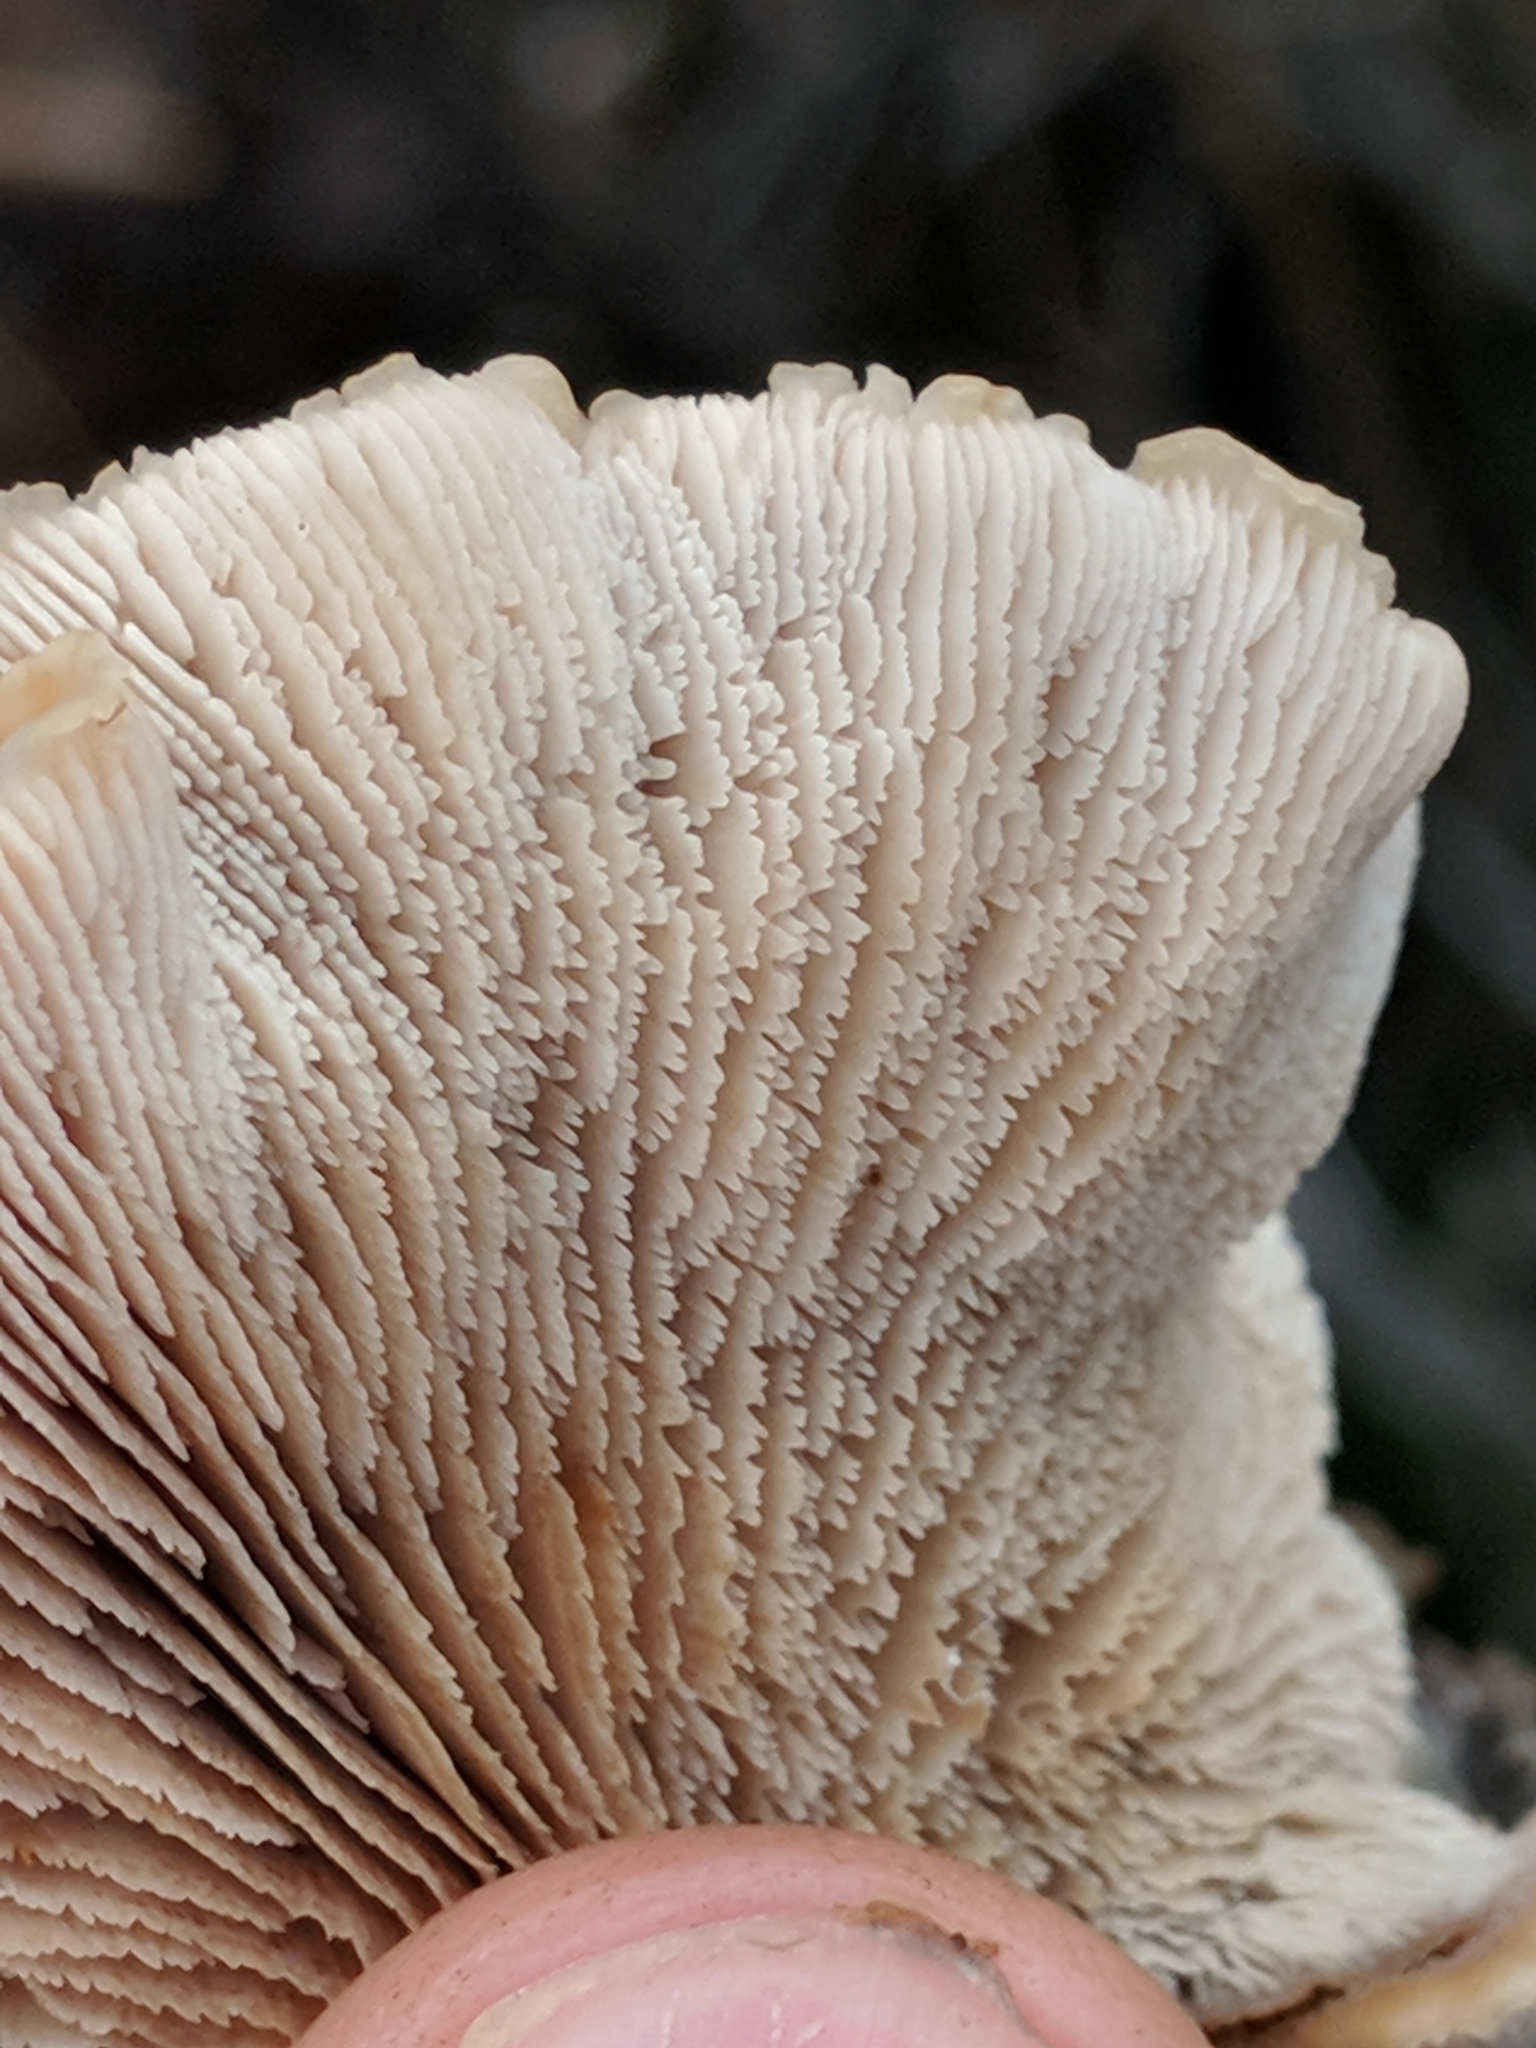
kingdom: Fungi
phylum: Basidiomycota
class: Agaricomycetes
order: Russulales
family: Auriscalpiaceae
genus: Lentinellus
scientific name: Lentinellus ursinus
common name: Bear lentinus
